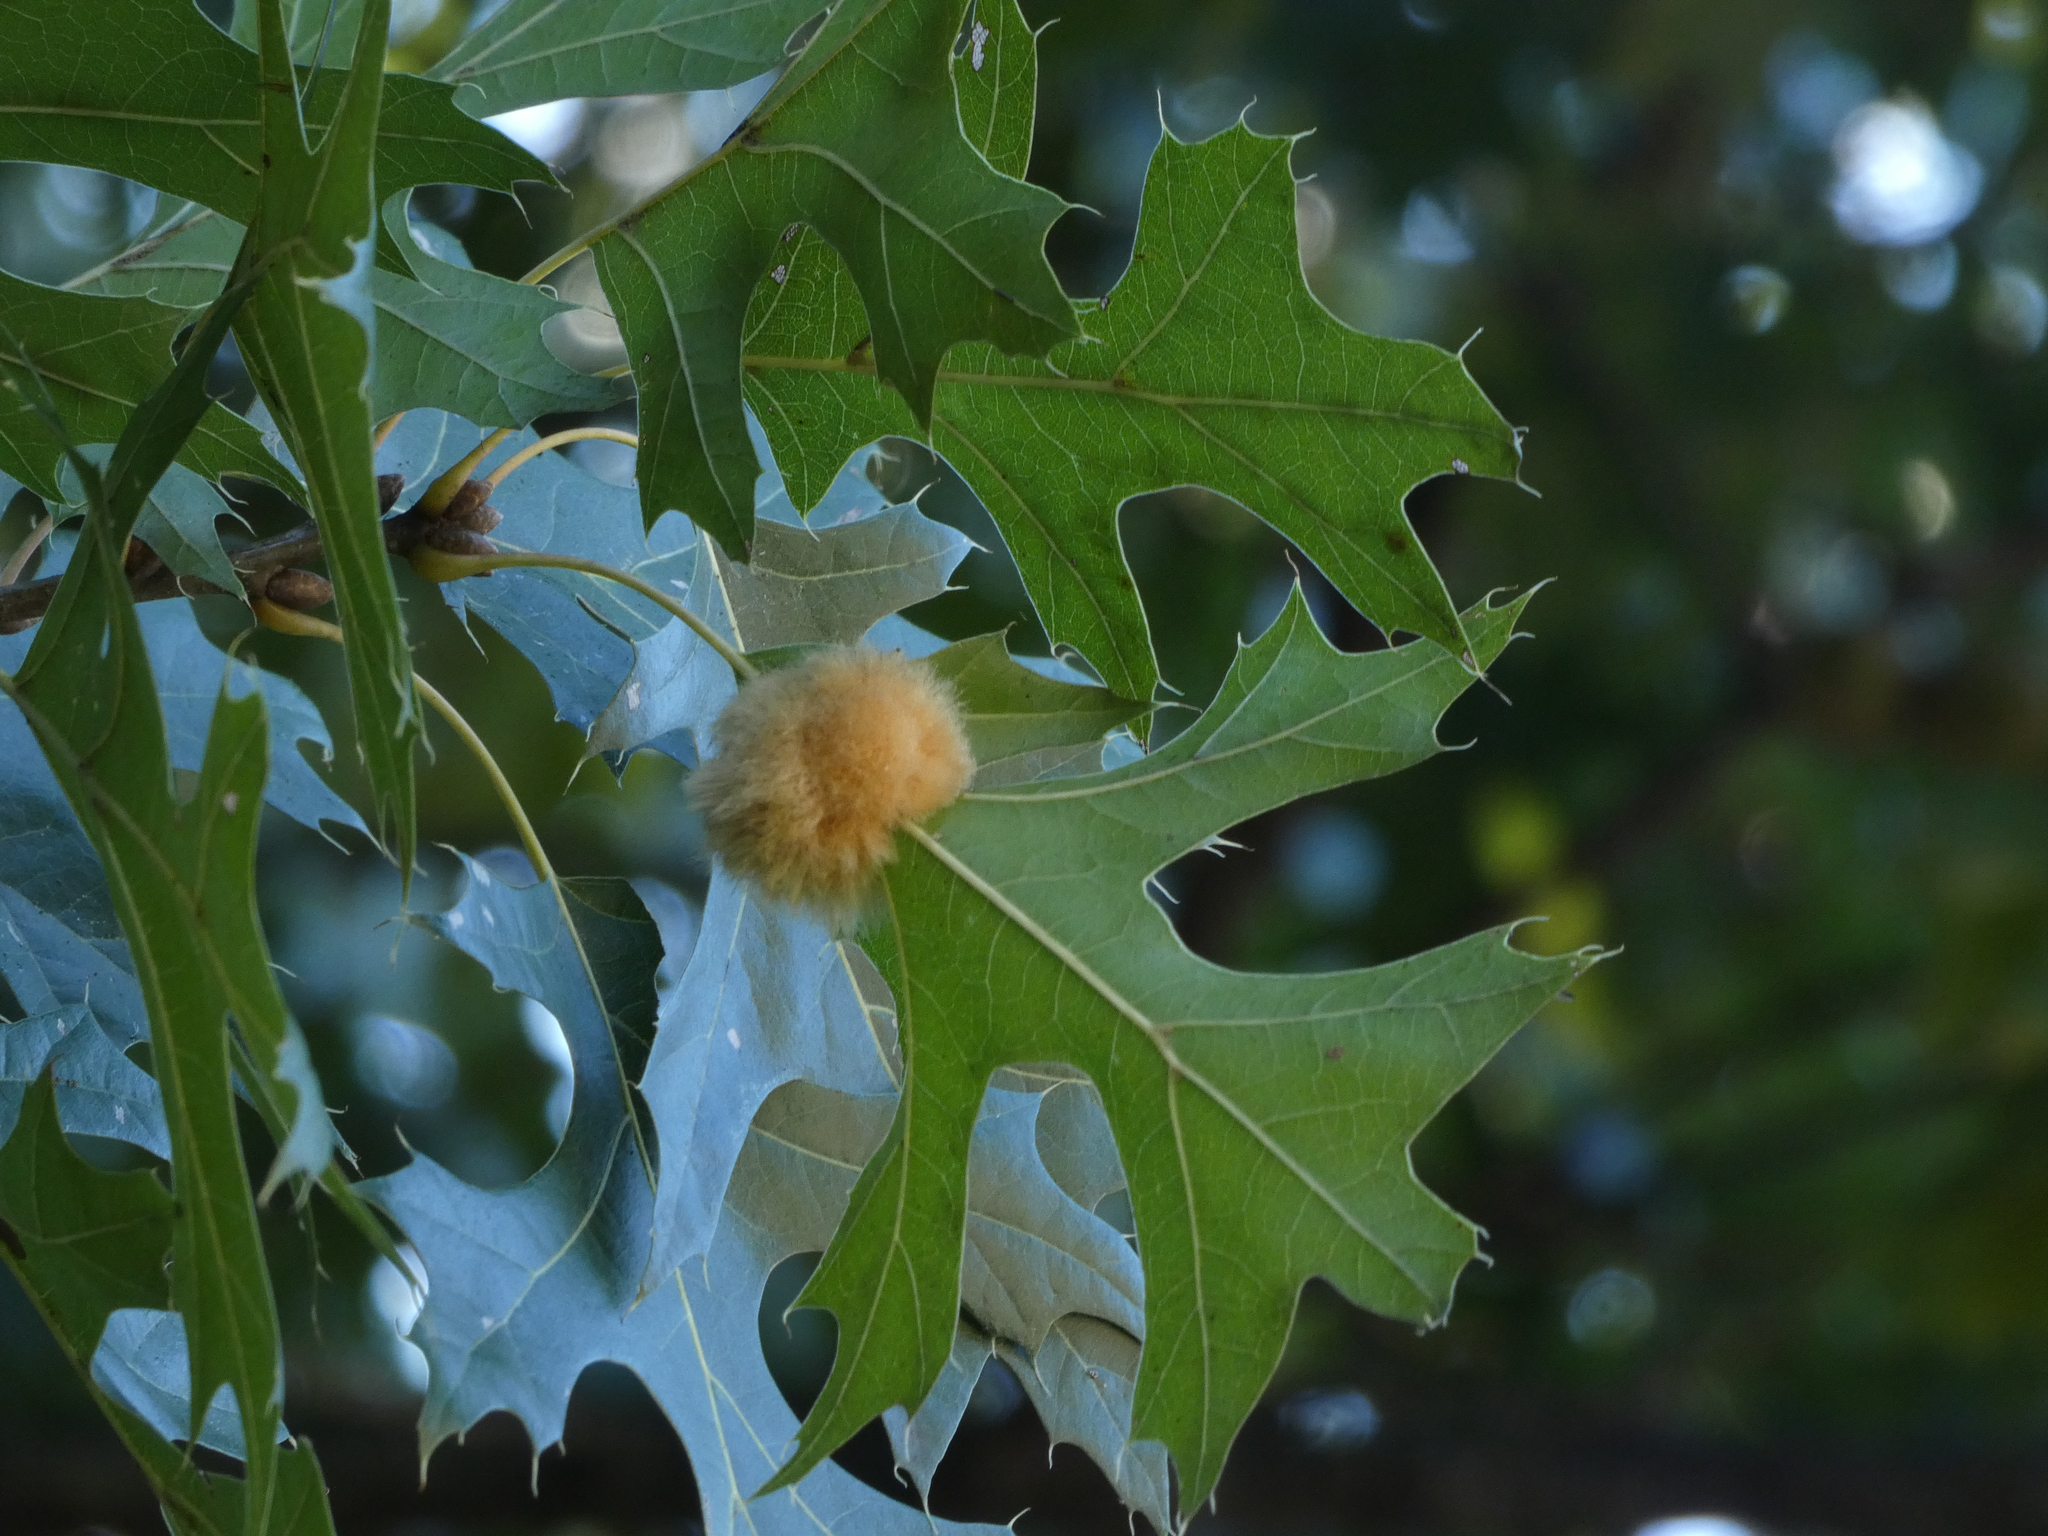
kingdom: Animalia
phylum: Arthropoda
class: Insecta
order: Hymenoptera
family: Cynipidae
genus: Callirhytis
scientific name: Callirhytis
